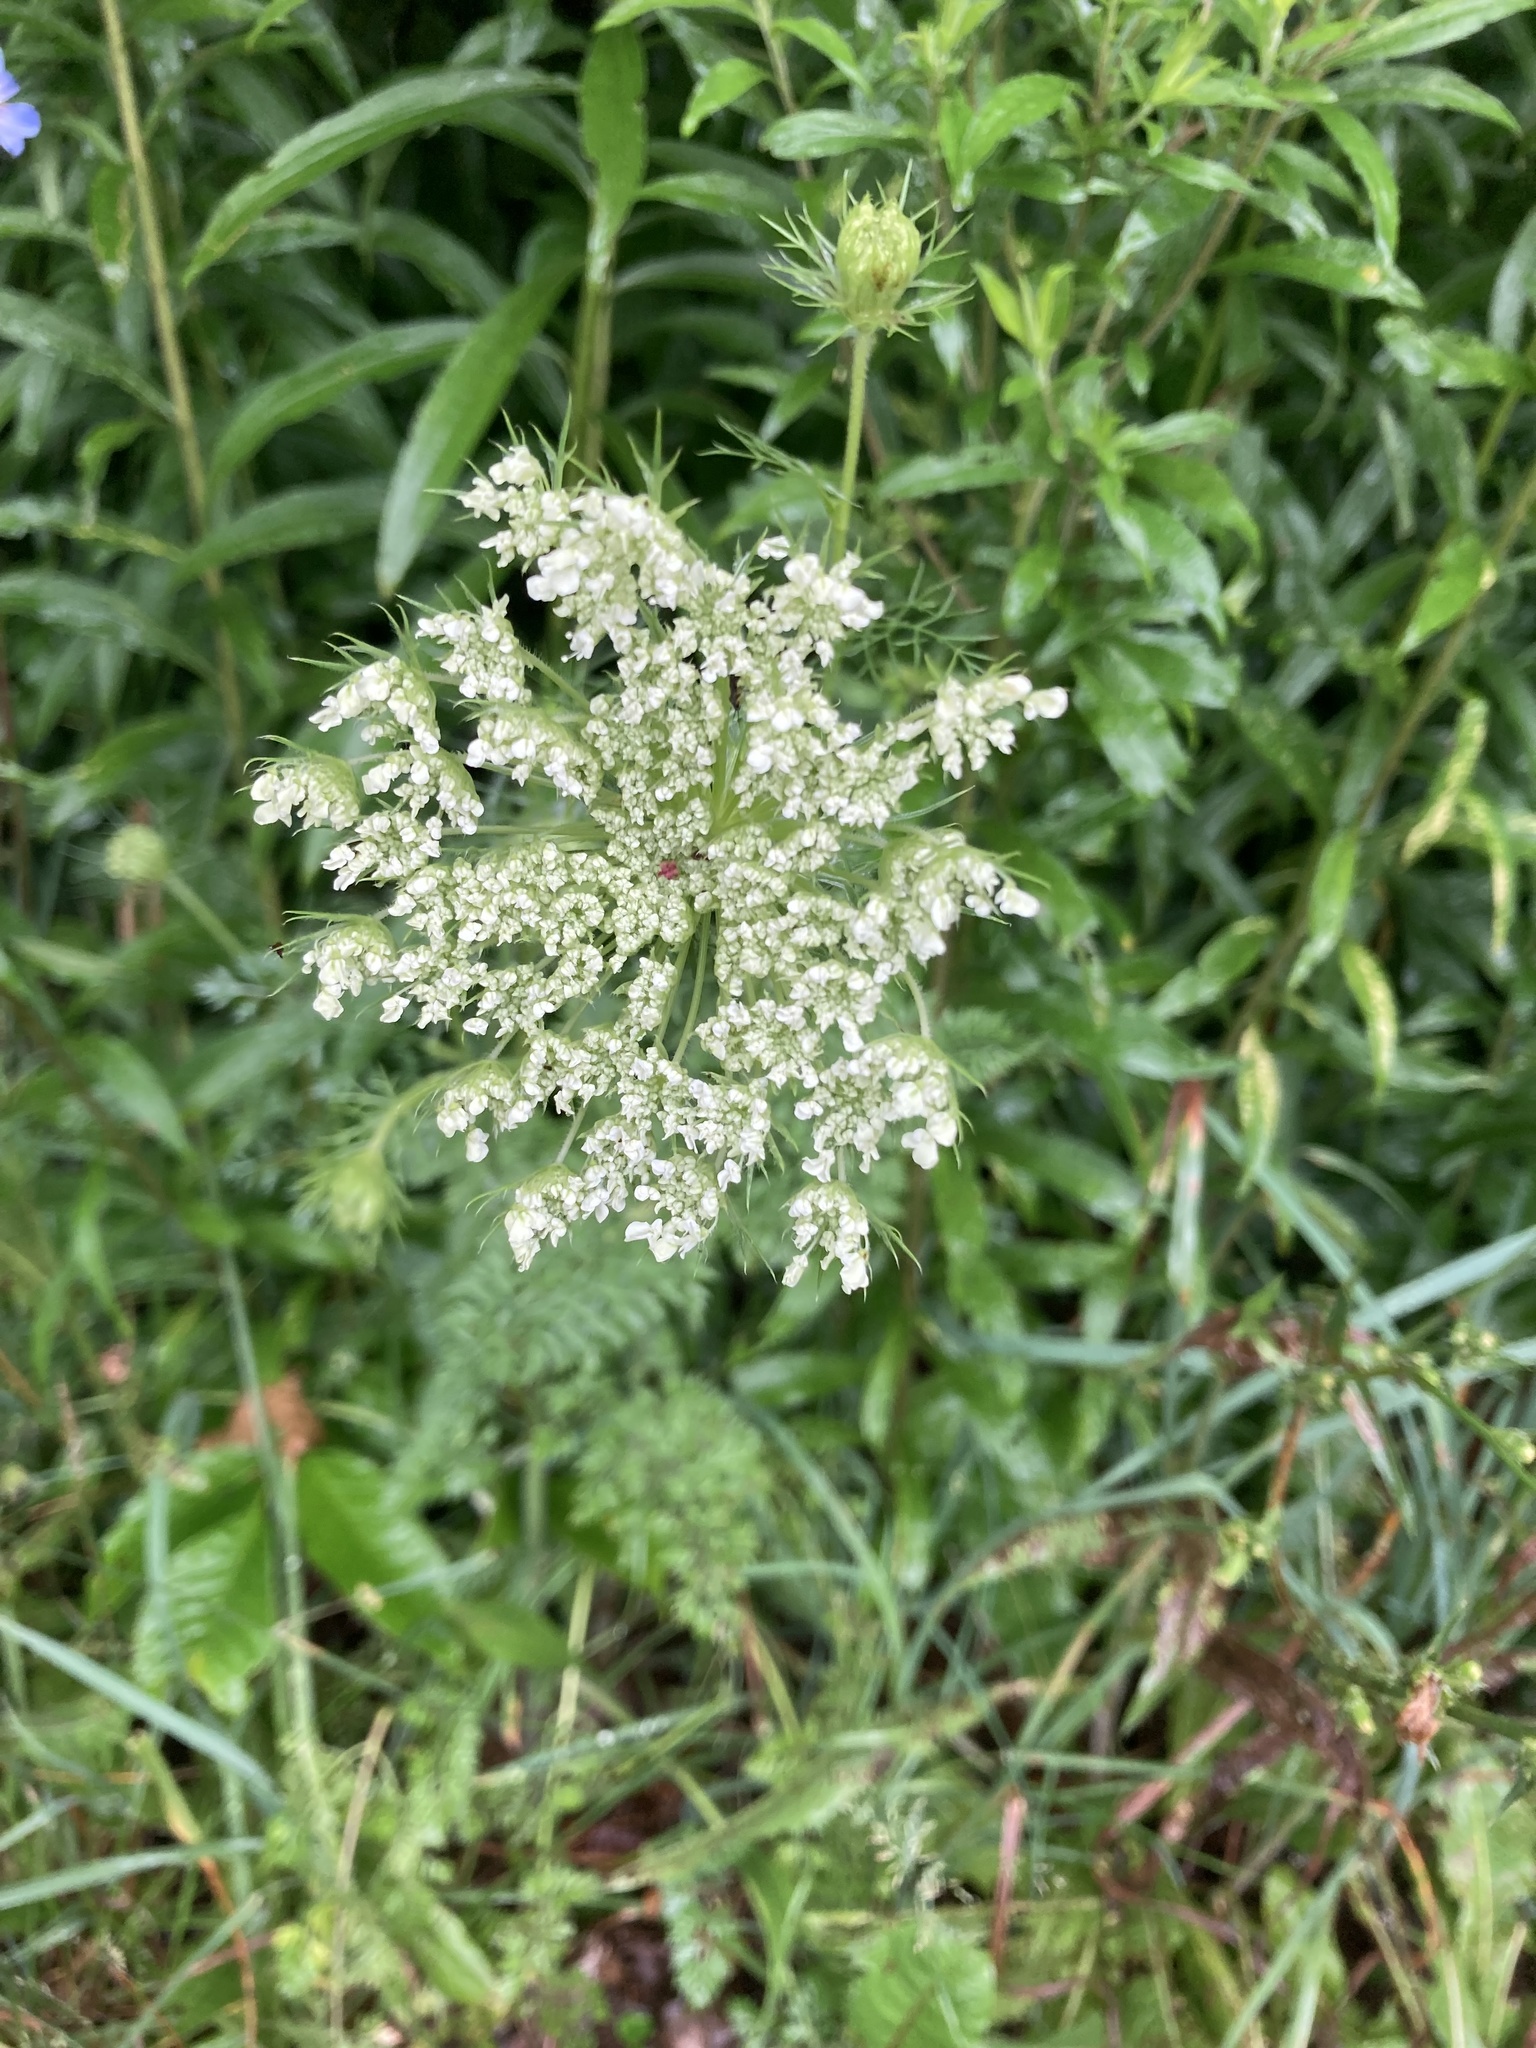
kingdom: Plantae
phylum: Tracheophyta
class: Magnoliopsida
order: Apiales
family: Apiaceae
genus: Daucus
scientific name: Daucus carota
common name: Wild carrot
